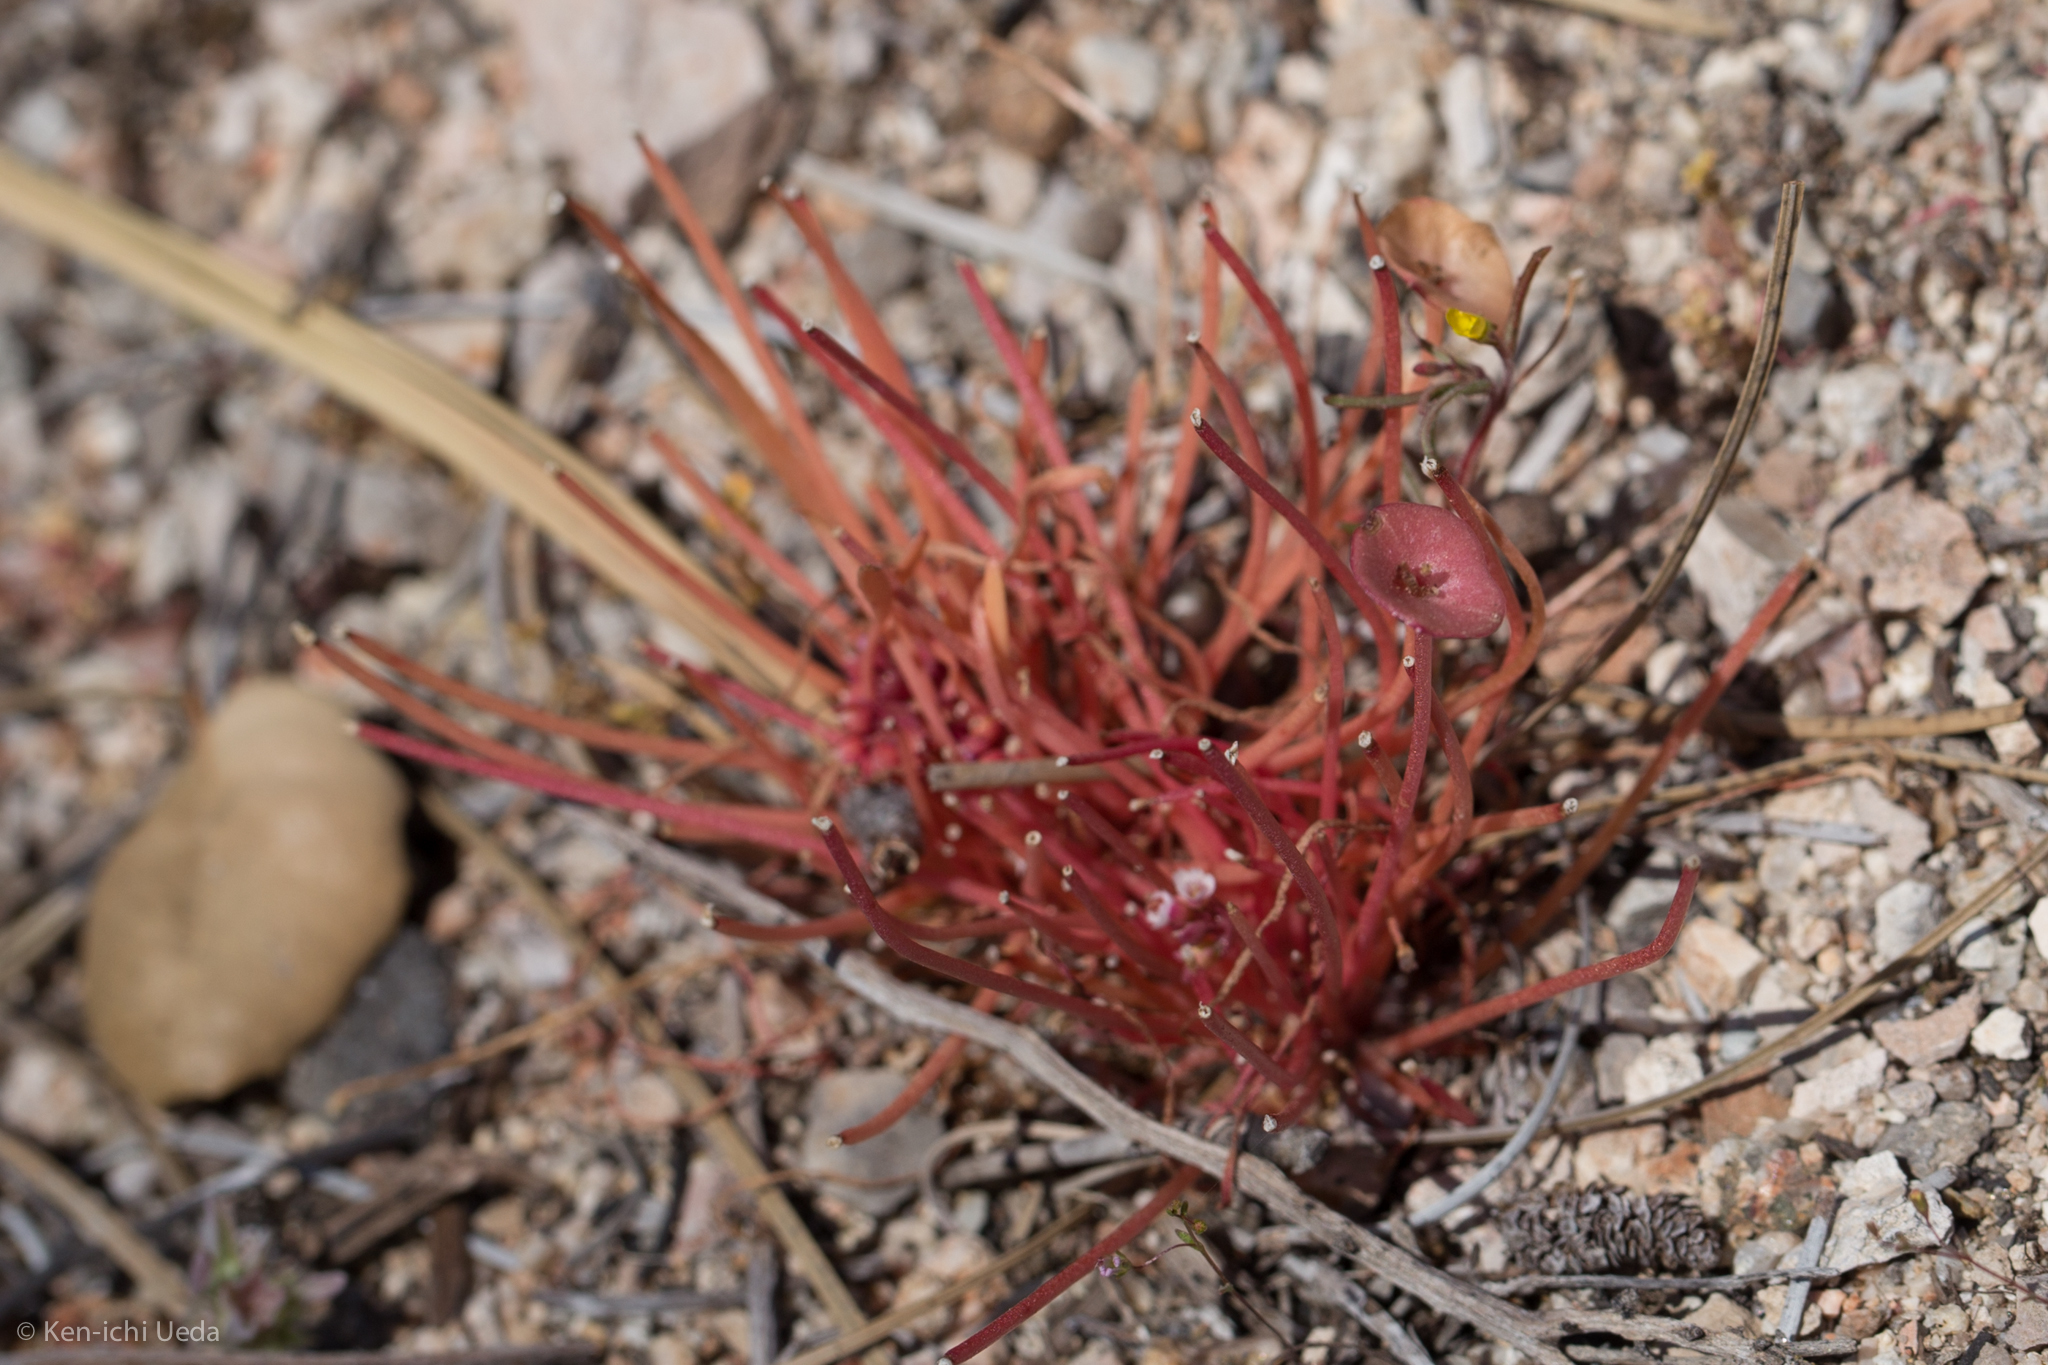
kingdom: Plantae
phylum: Tracheophyta
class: Magnoliopsida
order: Caryophyllales
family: Montiaceae
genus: Claytonia
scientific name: Claytonia parviflora
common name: Indian-lettuce
